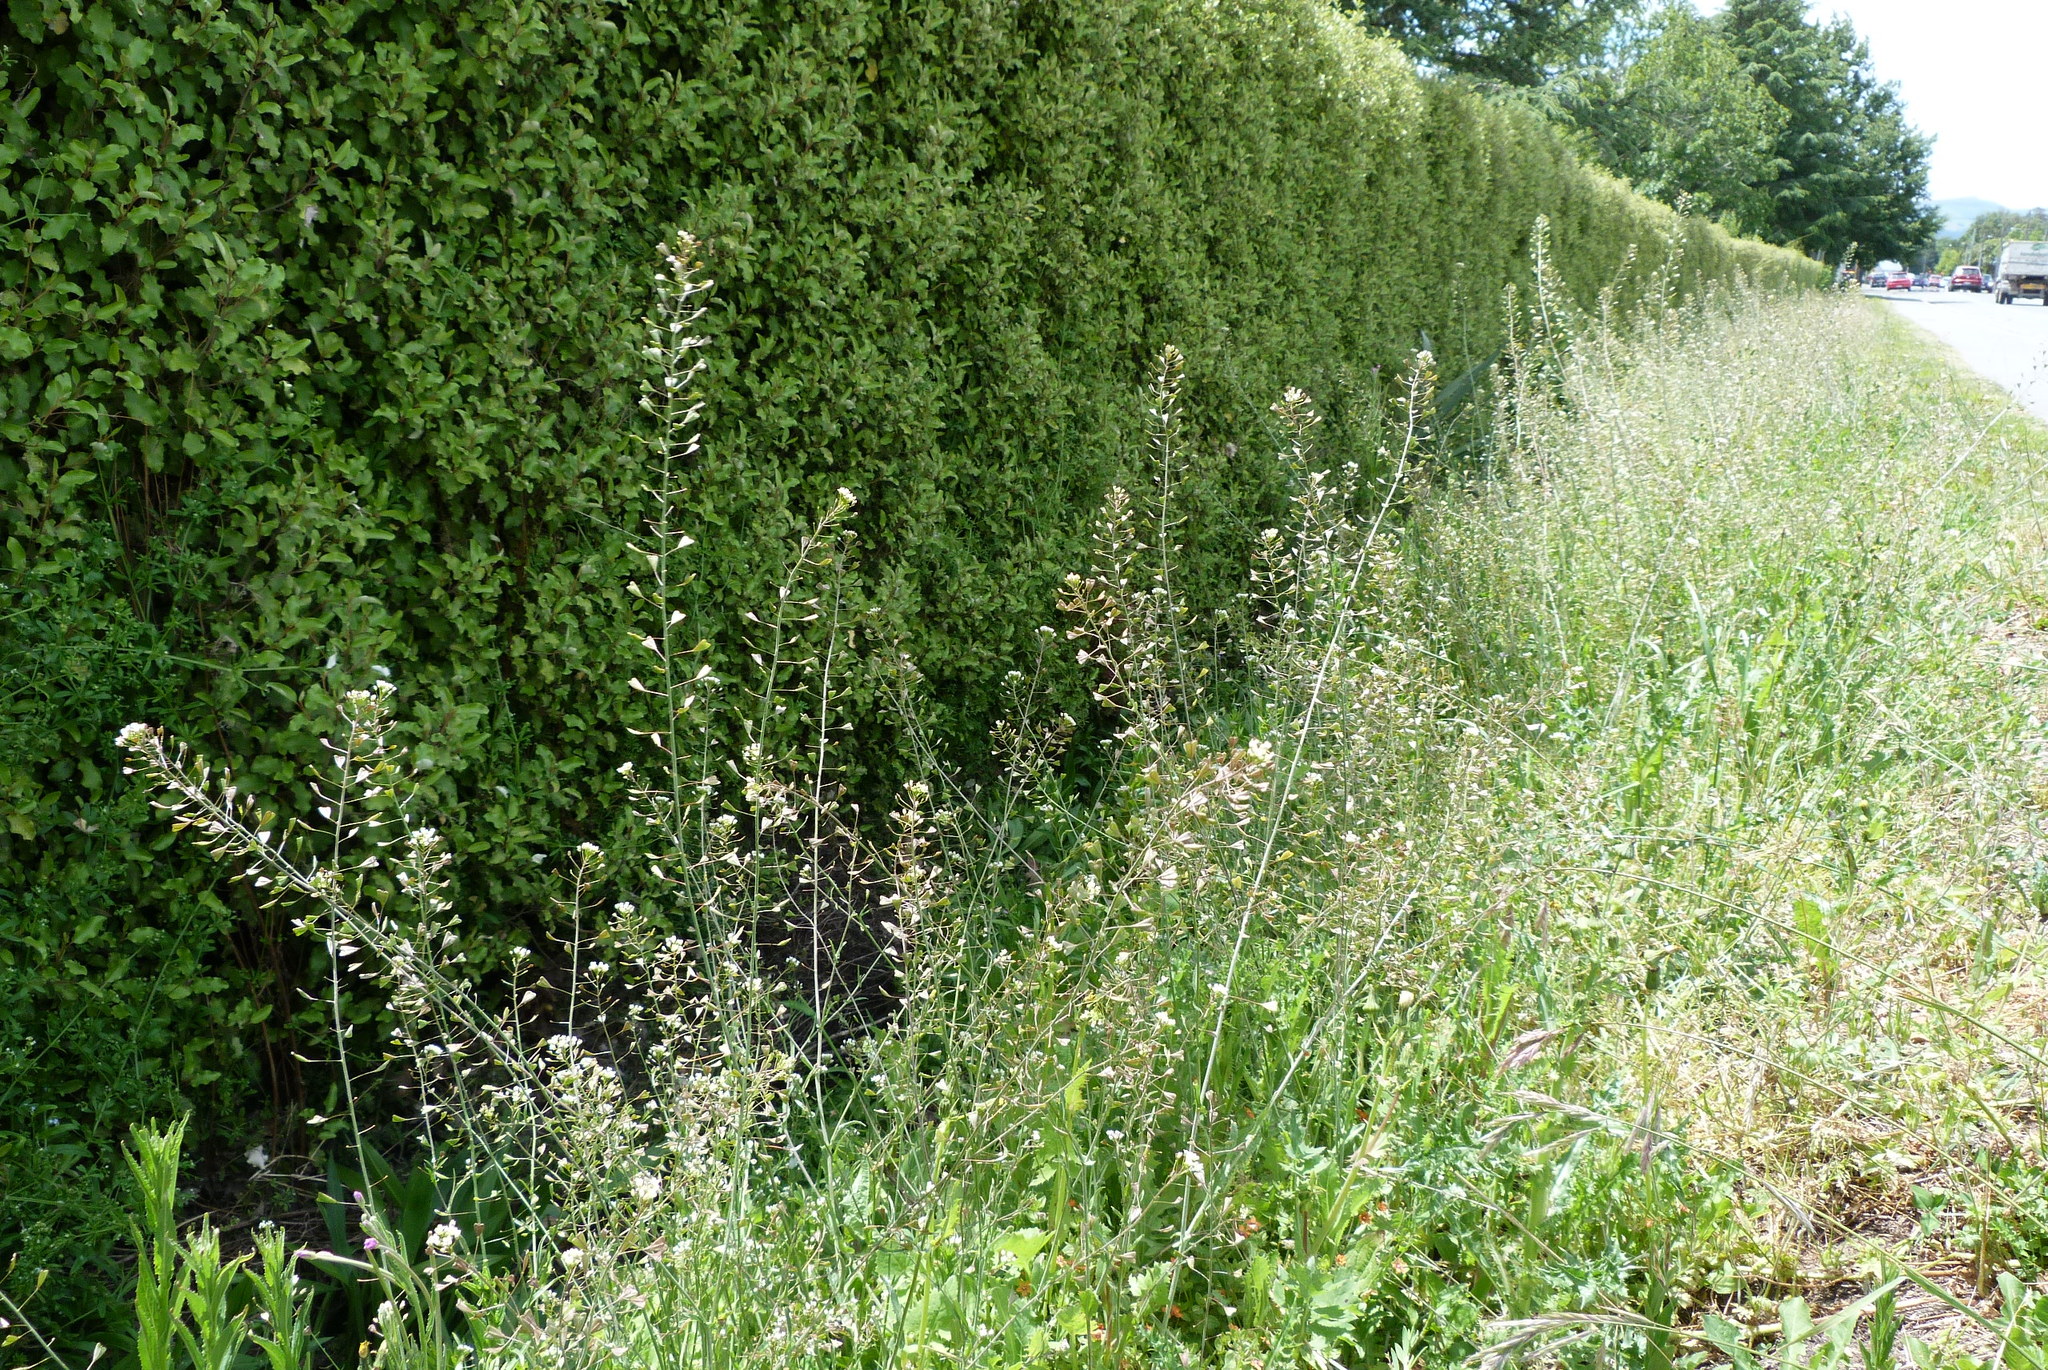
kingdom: Plantae
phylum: Tracheophyta
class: Magnoliopsida
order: Brassicales
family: Brassicaceae
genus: Capsella
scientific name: Capsella bursa-pastoris
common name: Shepherd's purse
